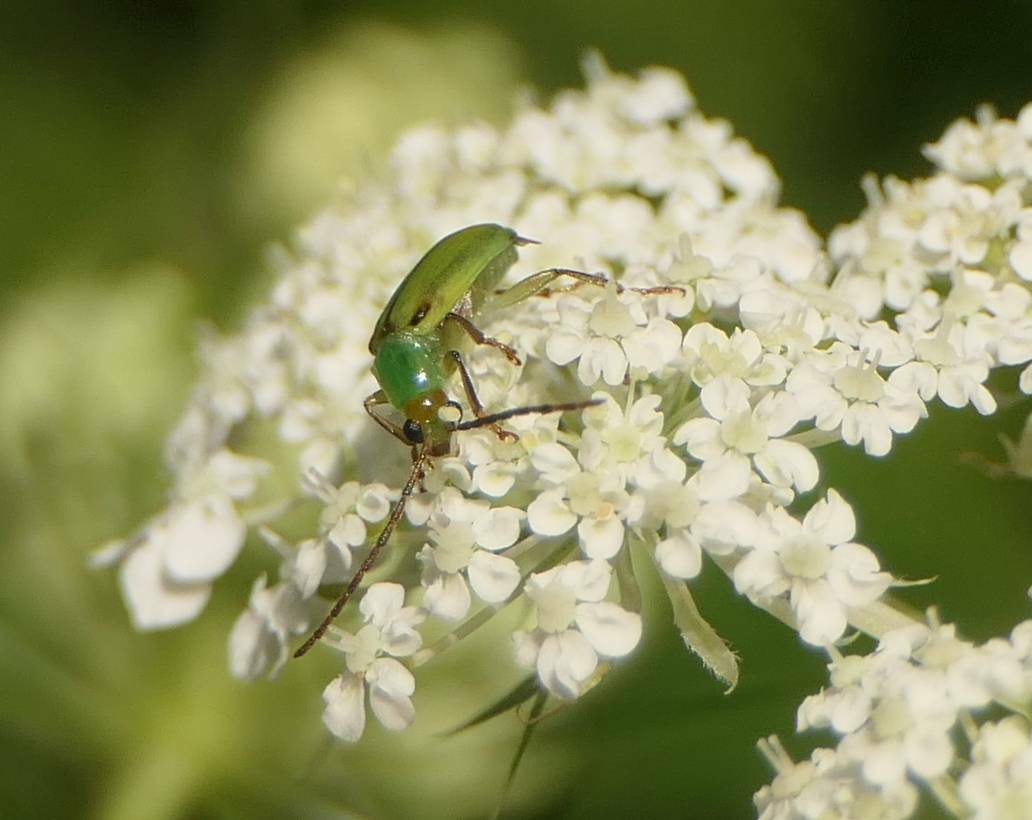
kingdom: Animalia
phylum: Arthropoda
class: Insecta
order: Coleoptera
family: Chrysomelidae
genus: Diabrotica
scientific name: Diabrotica barberi
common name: Northern corn rootworm
